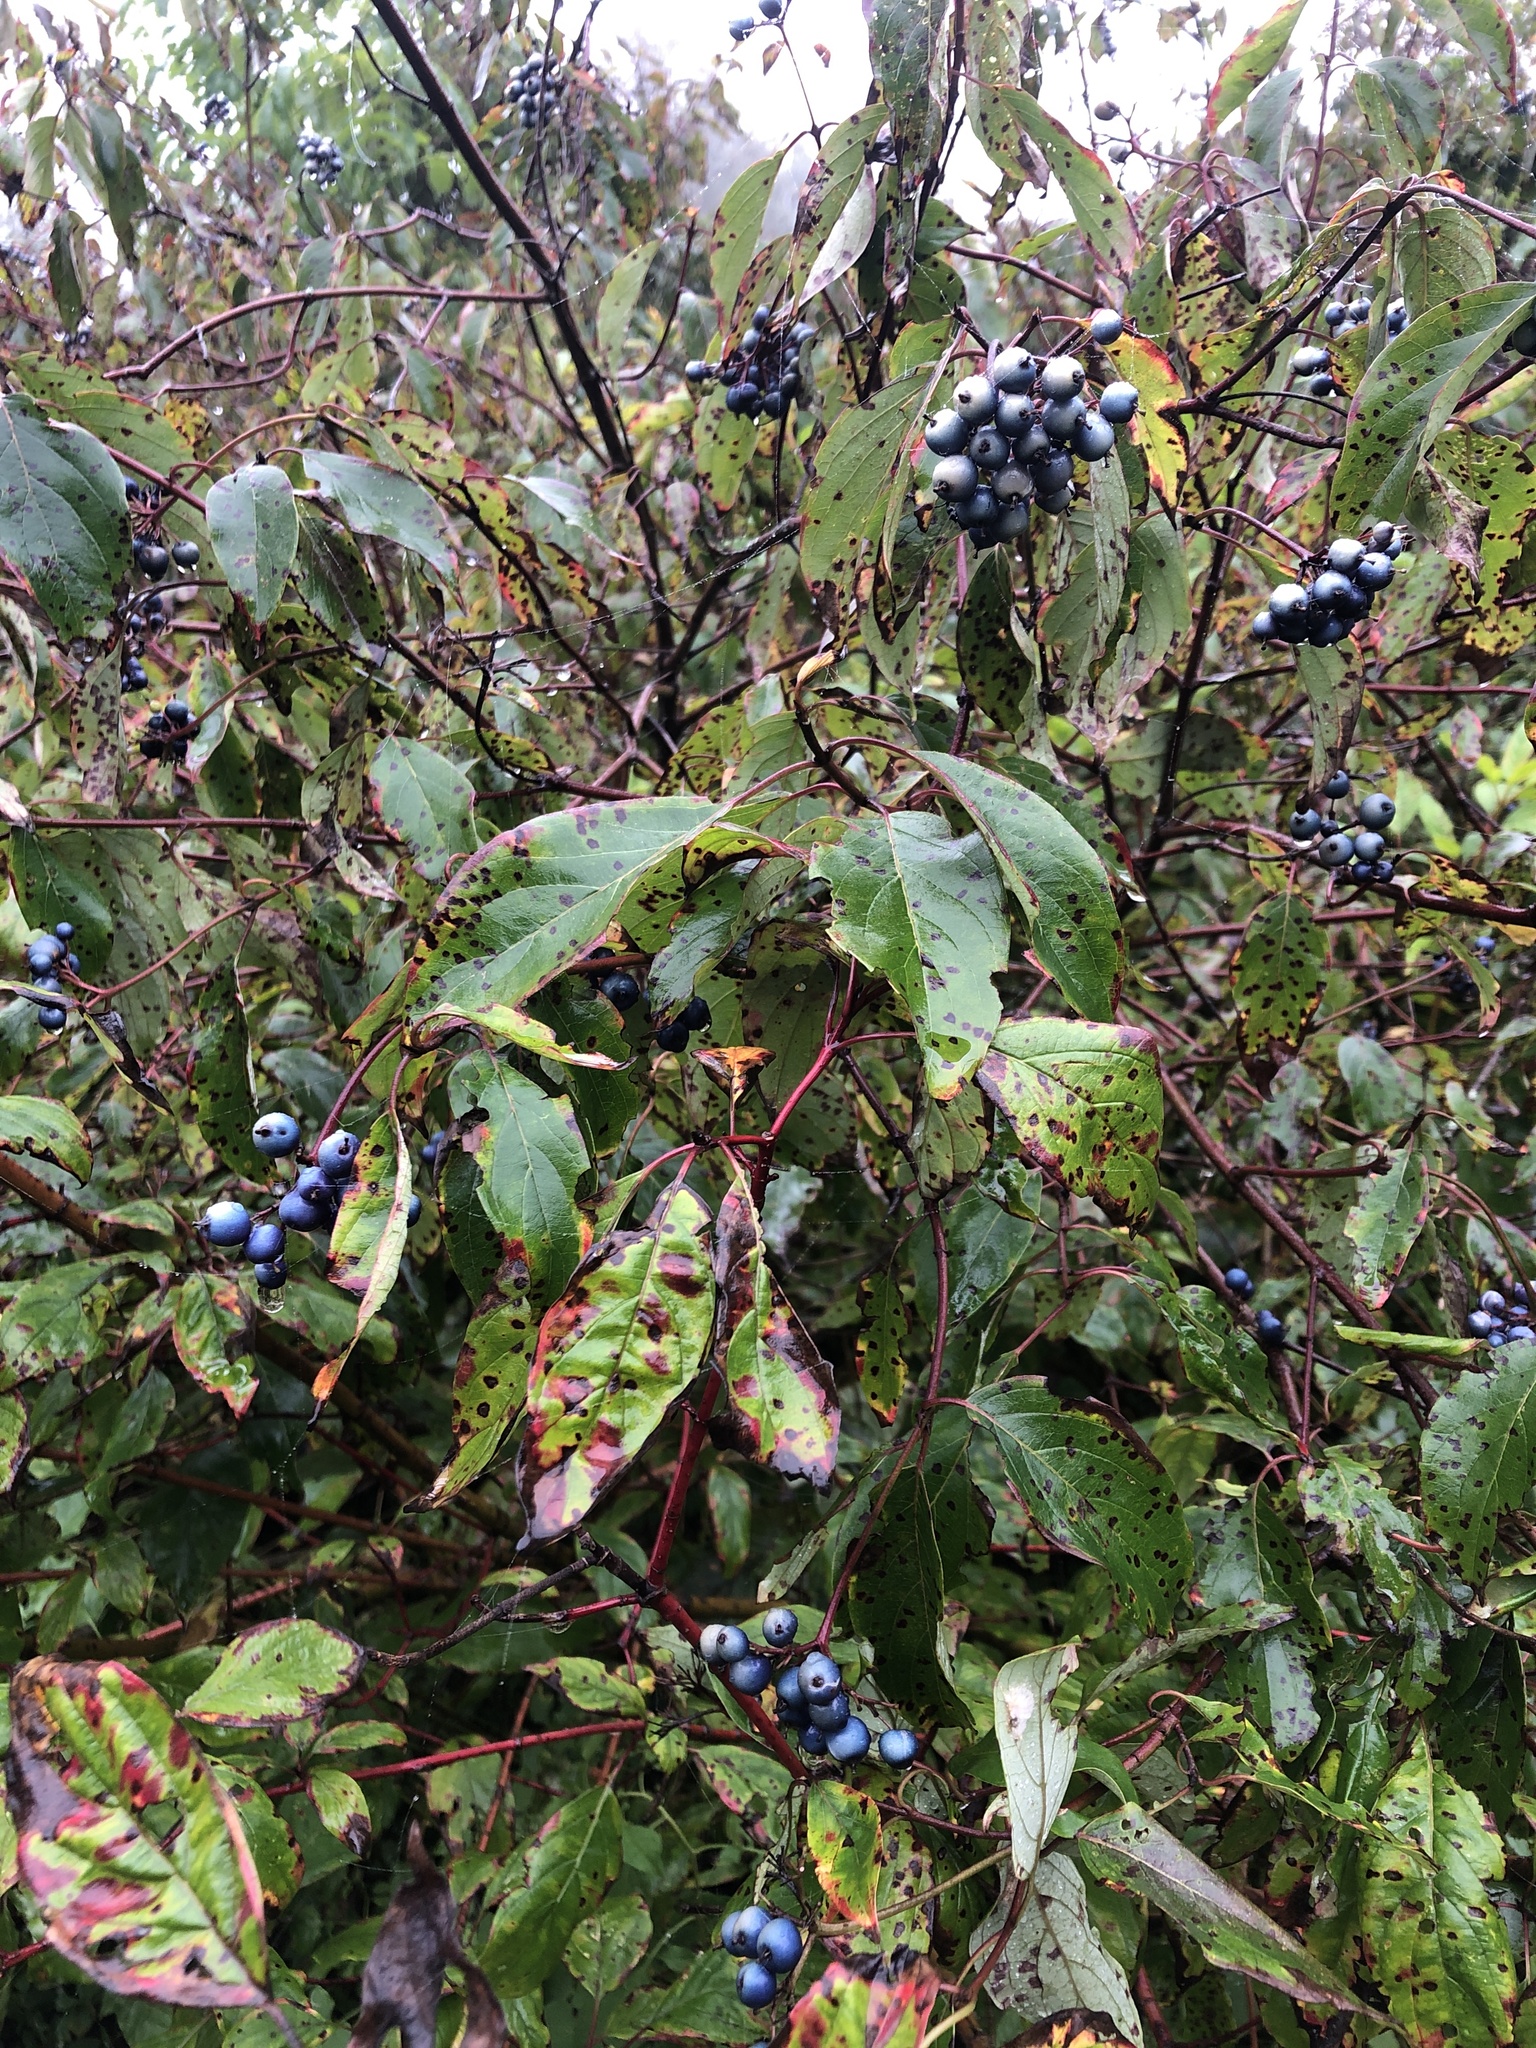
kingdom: Plantae
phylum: Tracheophyta
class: Magnoliopsida
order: Cornales
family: Cornaceae
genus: Cornus
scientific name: Cornus amomum
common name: Silky dogwood
